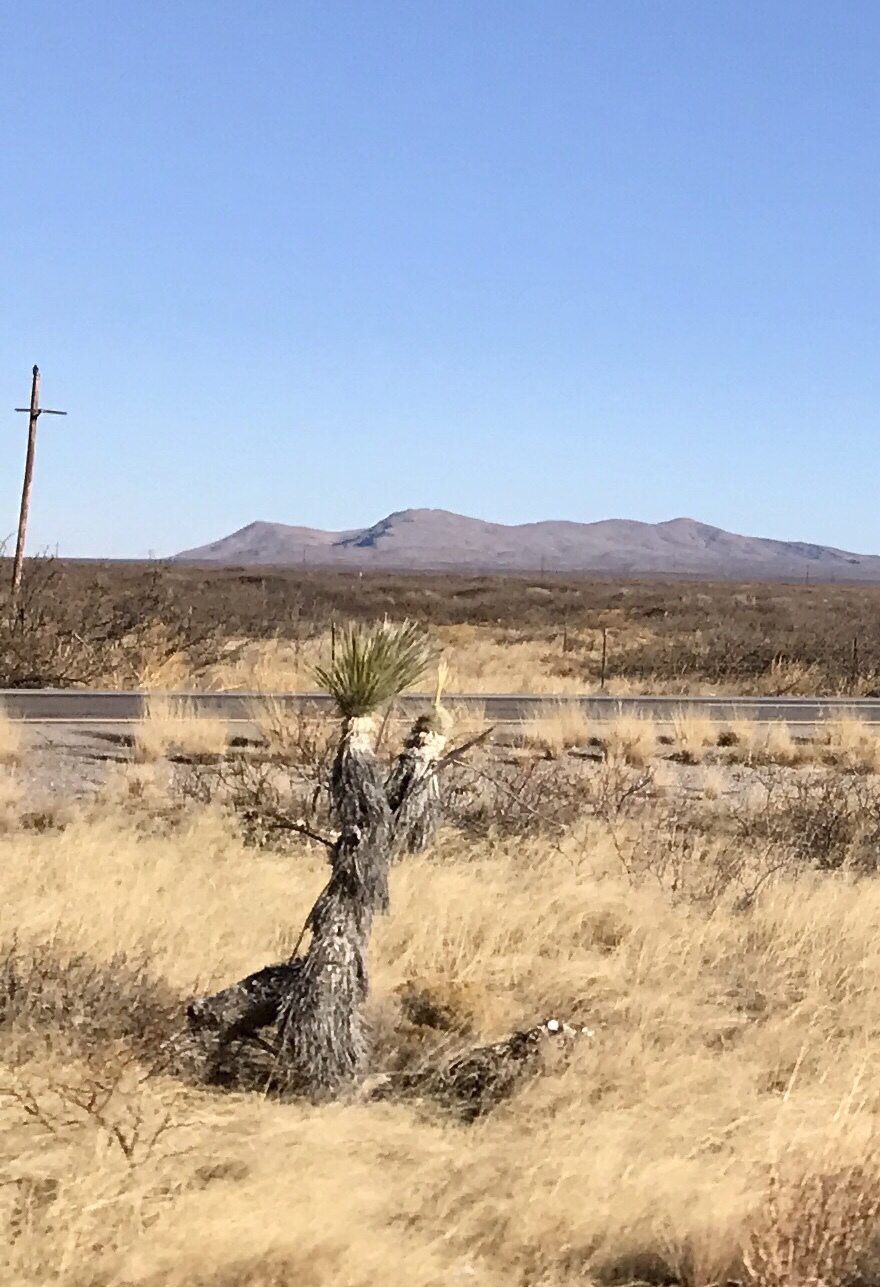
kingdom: Plantae
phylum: Tracheophyta
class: Liliopsida
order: Asparagales
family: Asparagaceae
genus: Yucca
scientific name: Yucca elata
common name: Palmella
